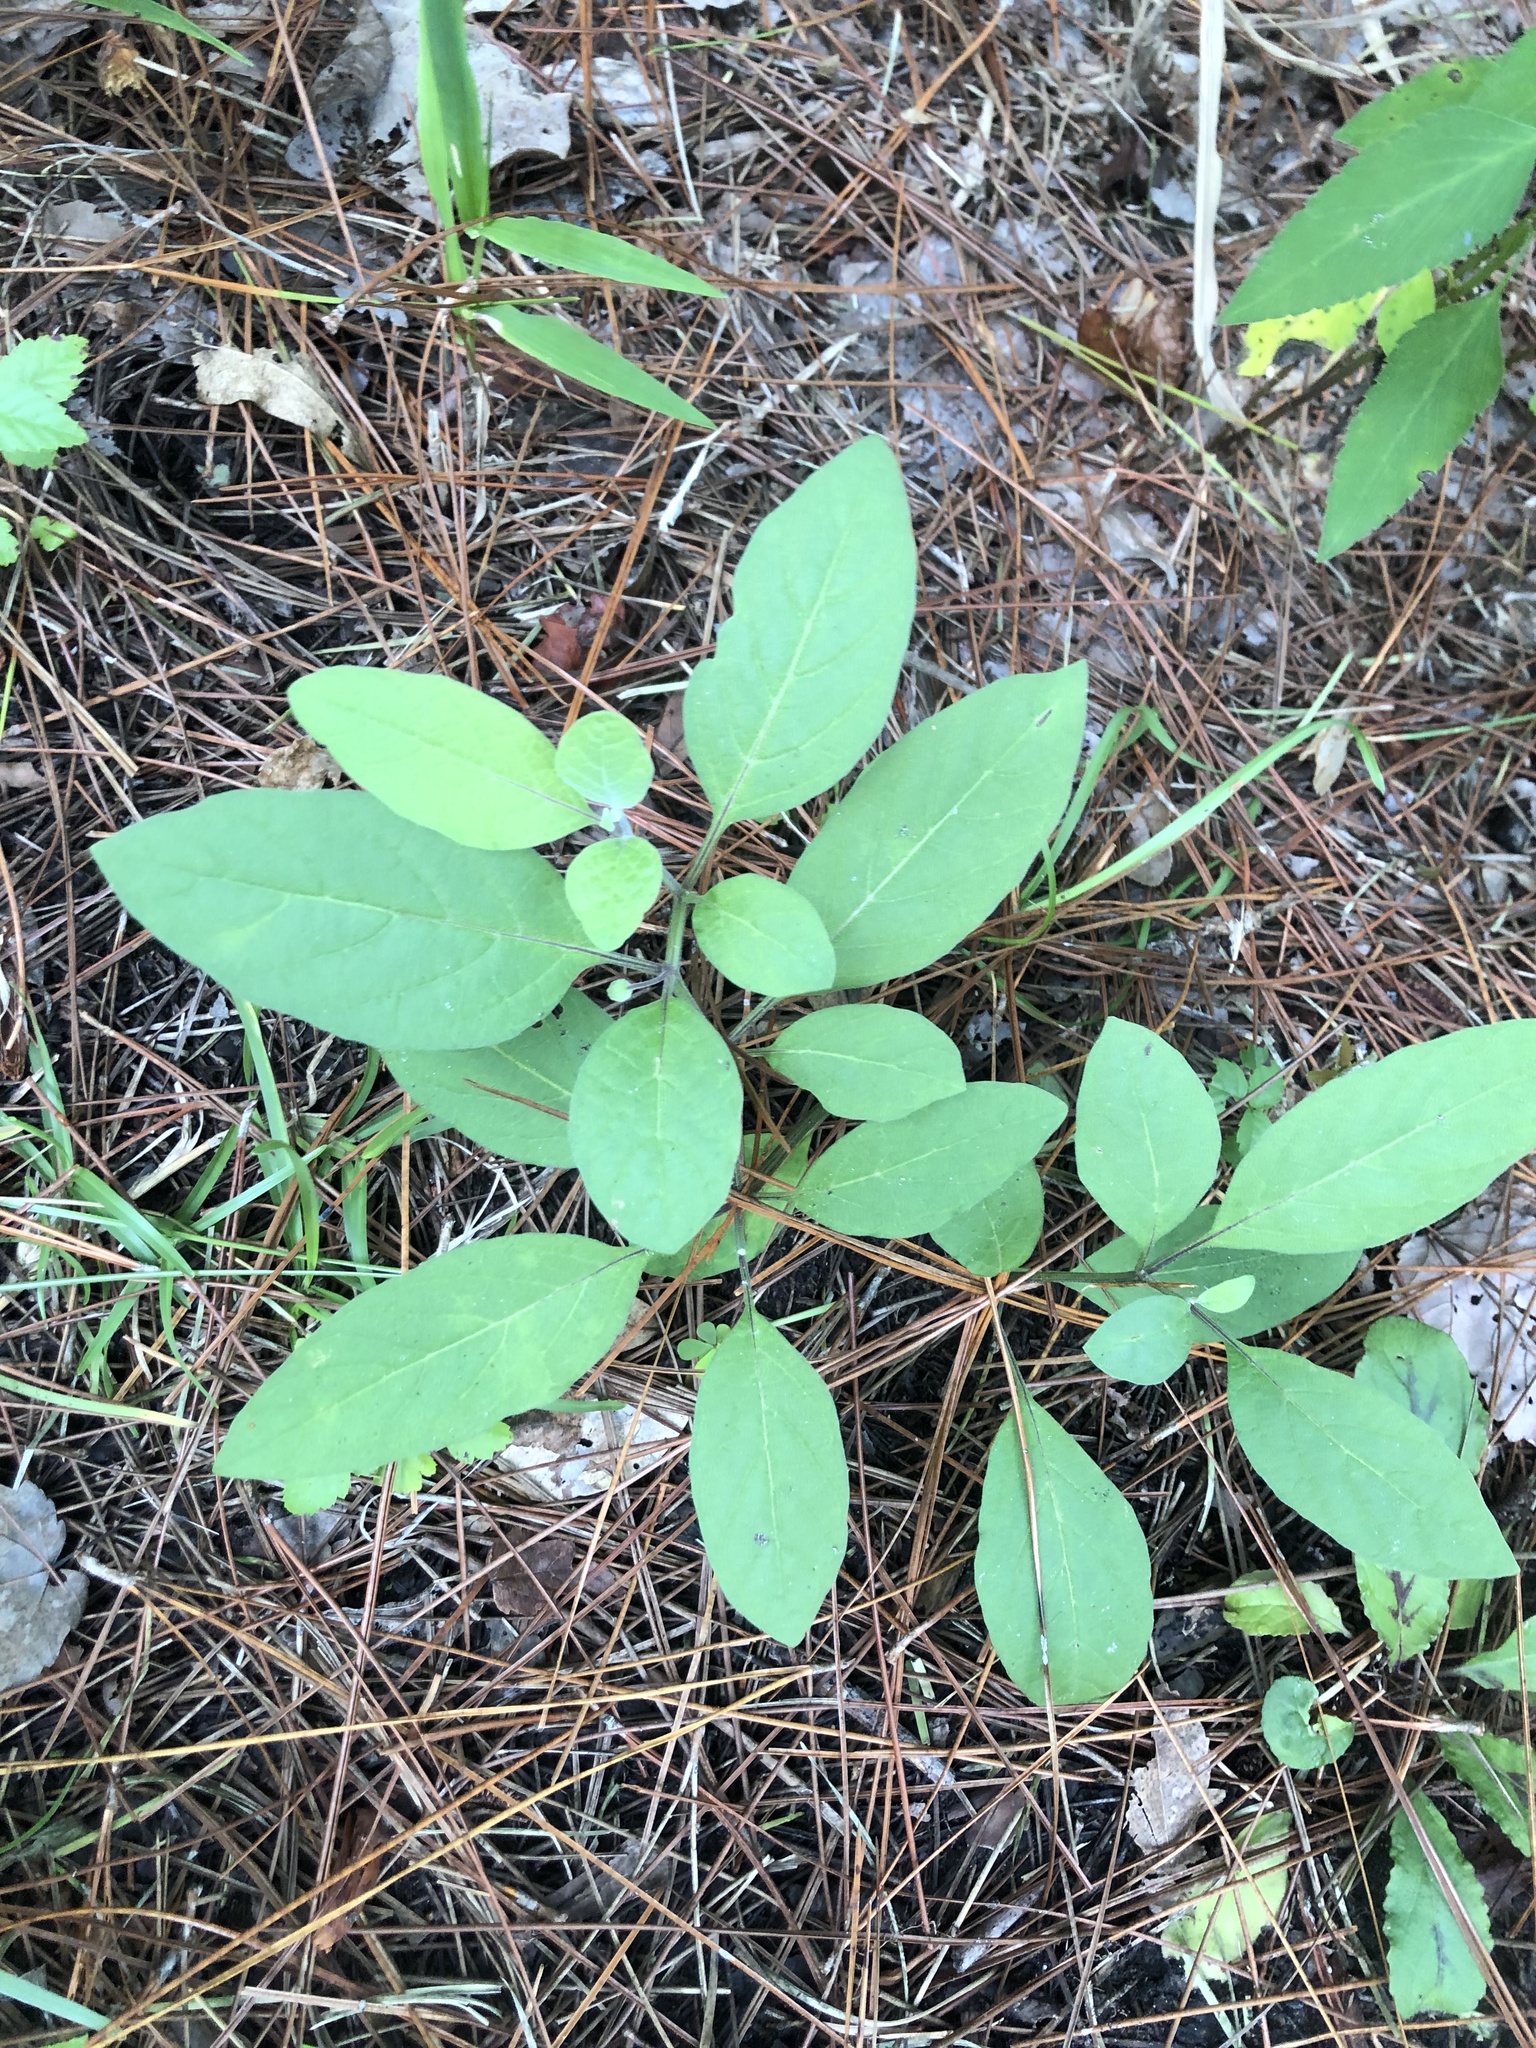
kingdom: Plantae
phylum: Tracheophyta
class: Magnoliopsida
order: Solanales
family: Solanaceae
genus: Physalis
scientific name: Physalis walteri
